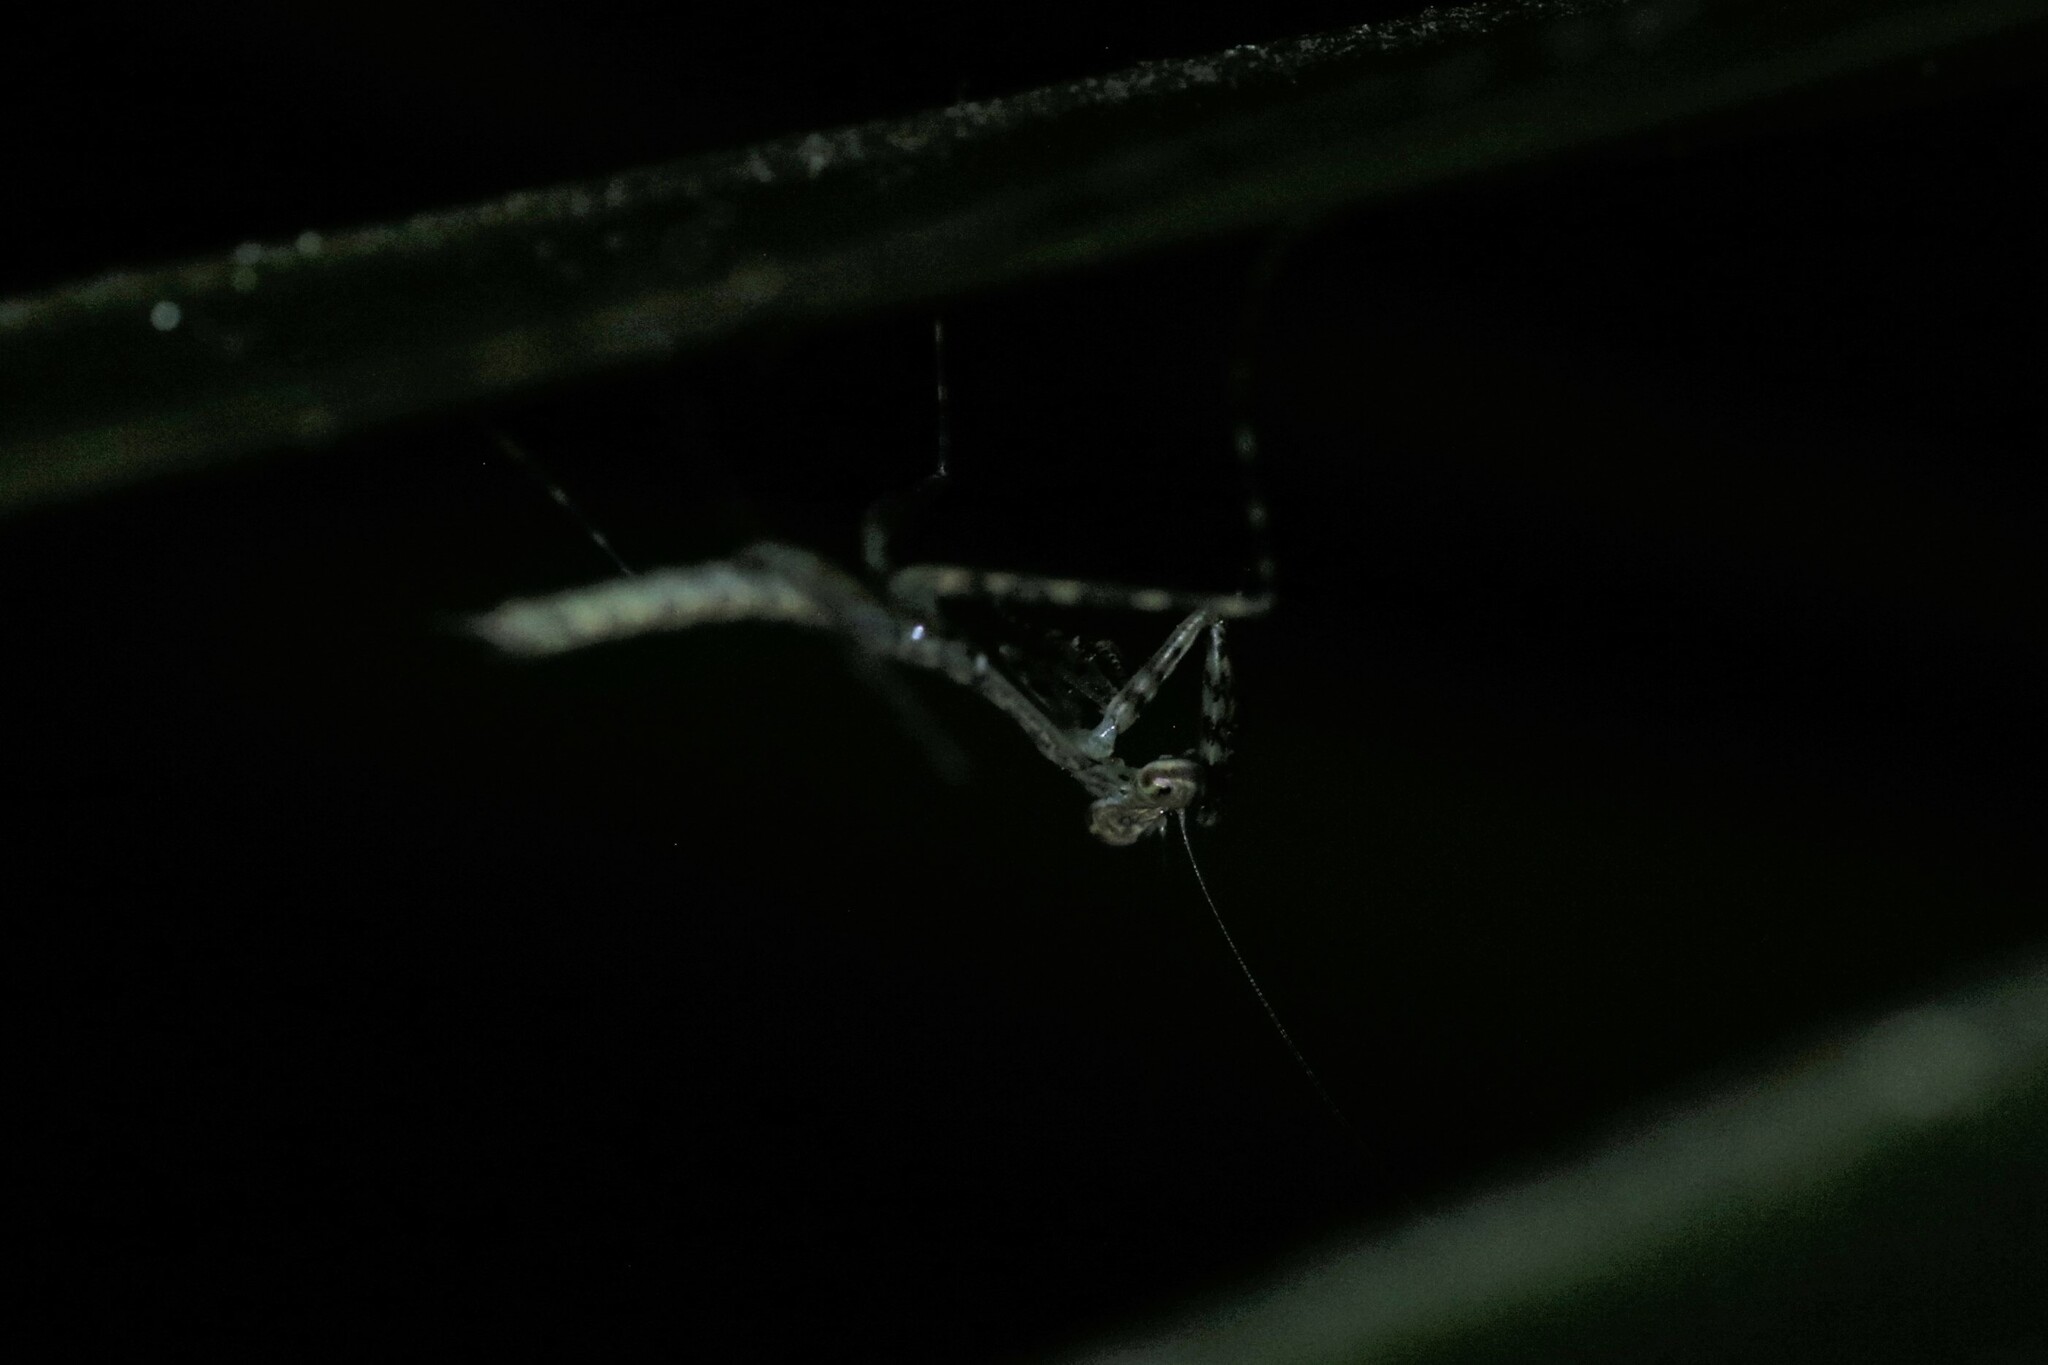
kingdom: Animalia
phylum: Arthropoda
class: Insecta
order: Mantodea
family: Nanomantidae
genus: Ciulfina
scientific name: Ciulfina rentzi
